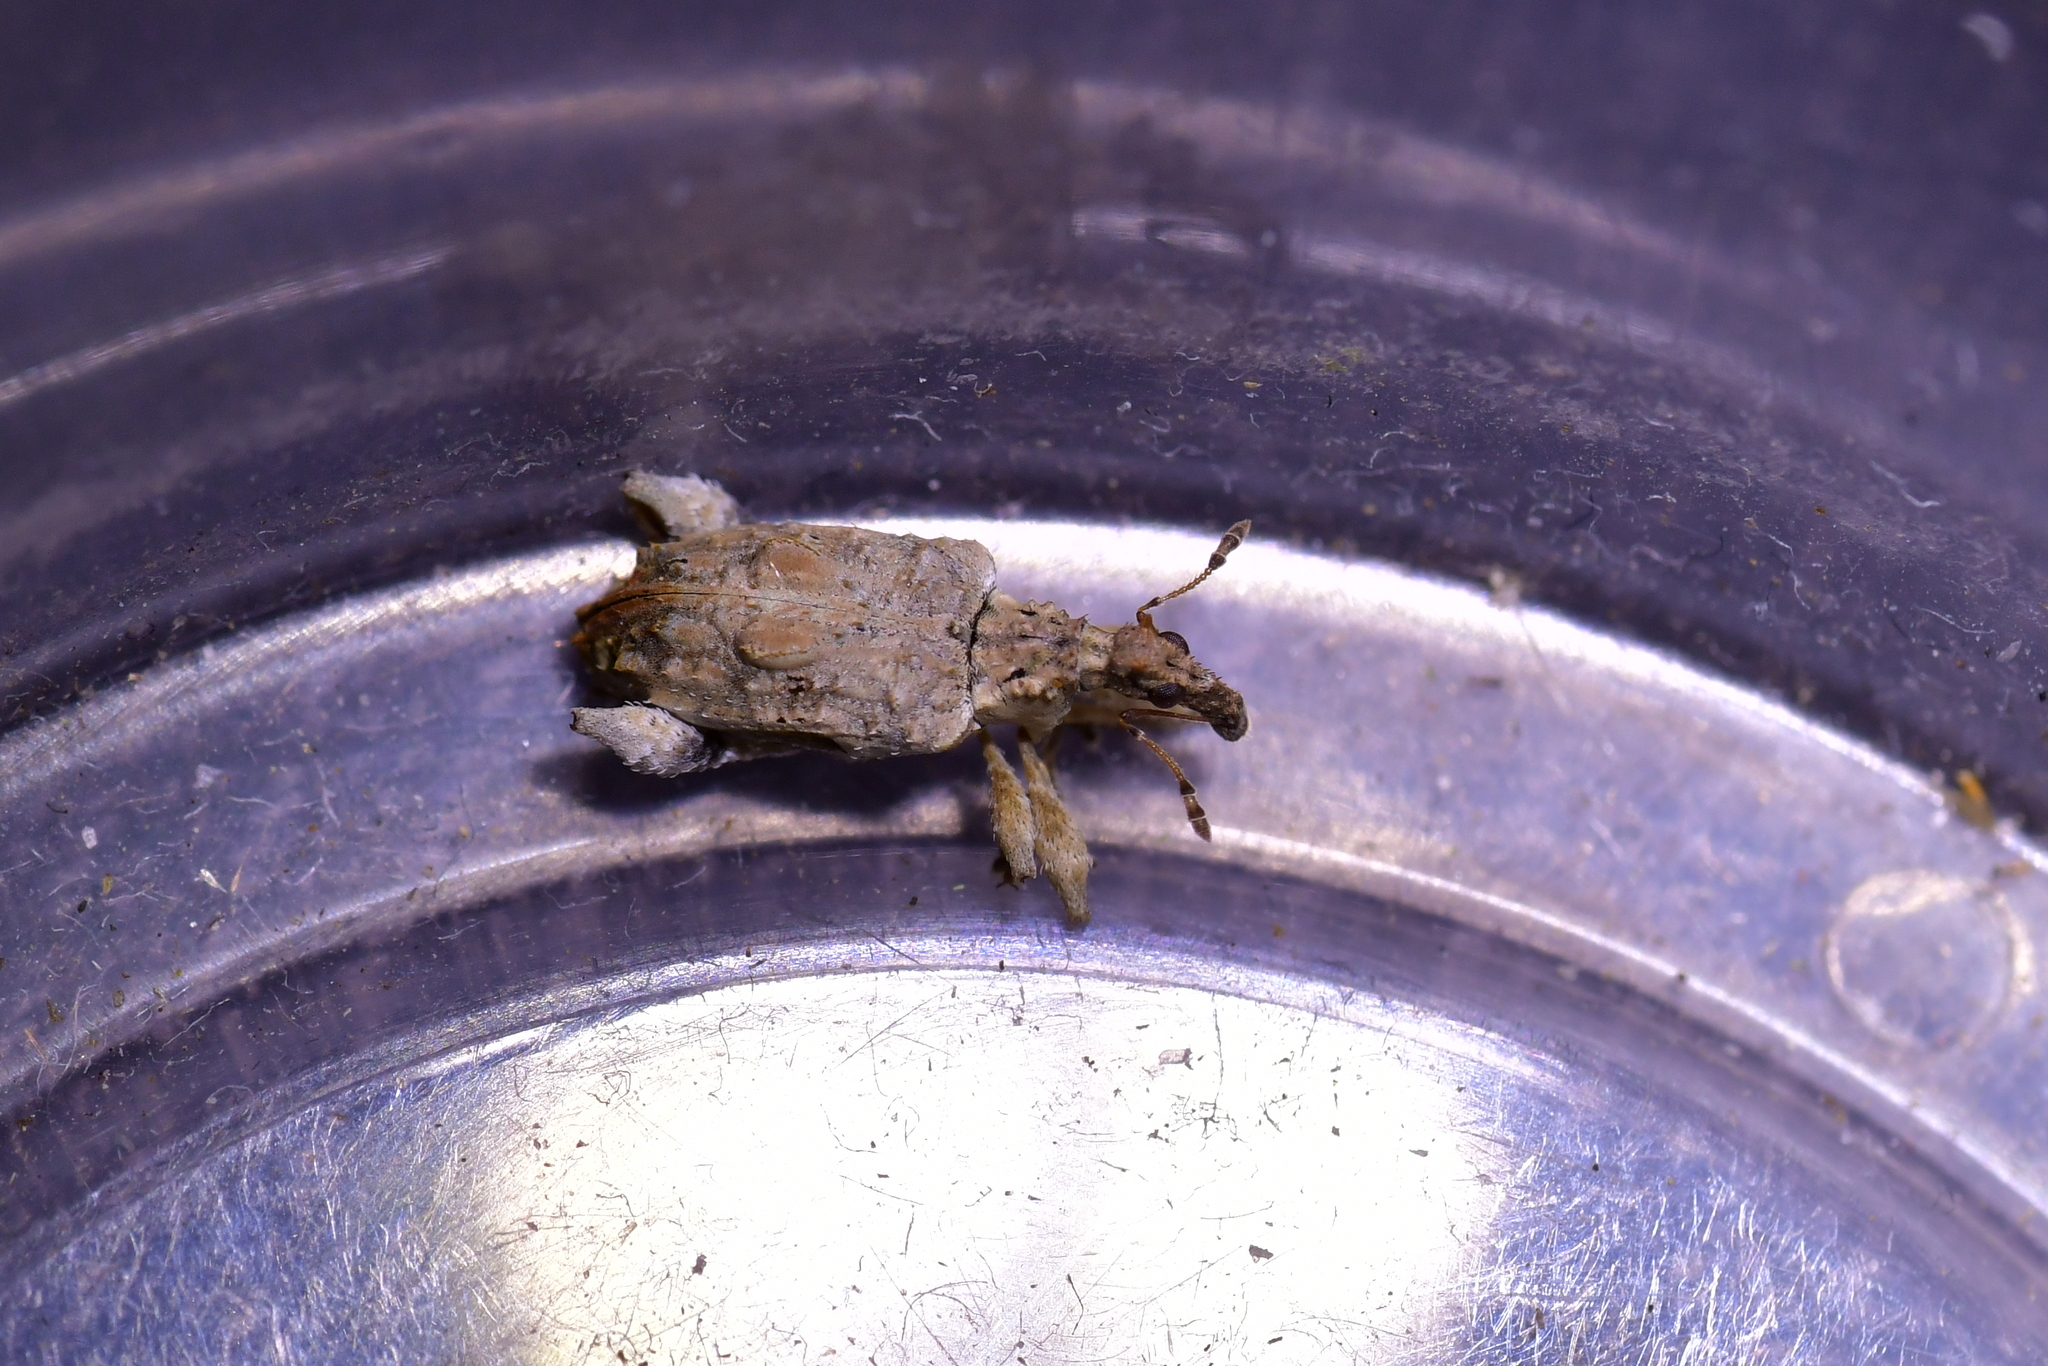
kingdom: Animalia
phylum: Arthropoda
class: Insecta
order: Coleoptera
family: Curculionidae
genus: Stephanorhynchus
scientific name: Stephanorhynchus curvipes
